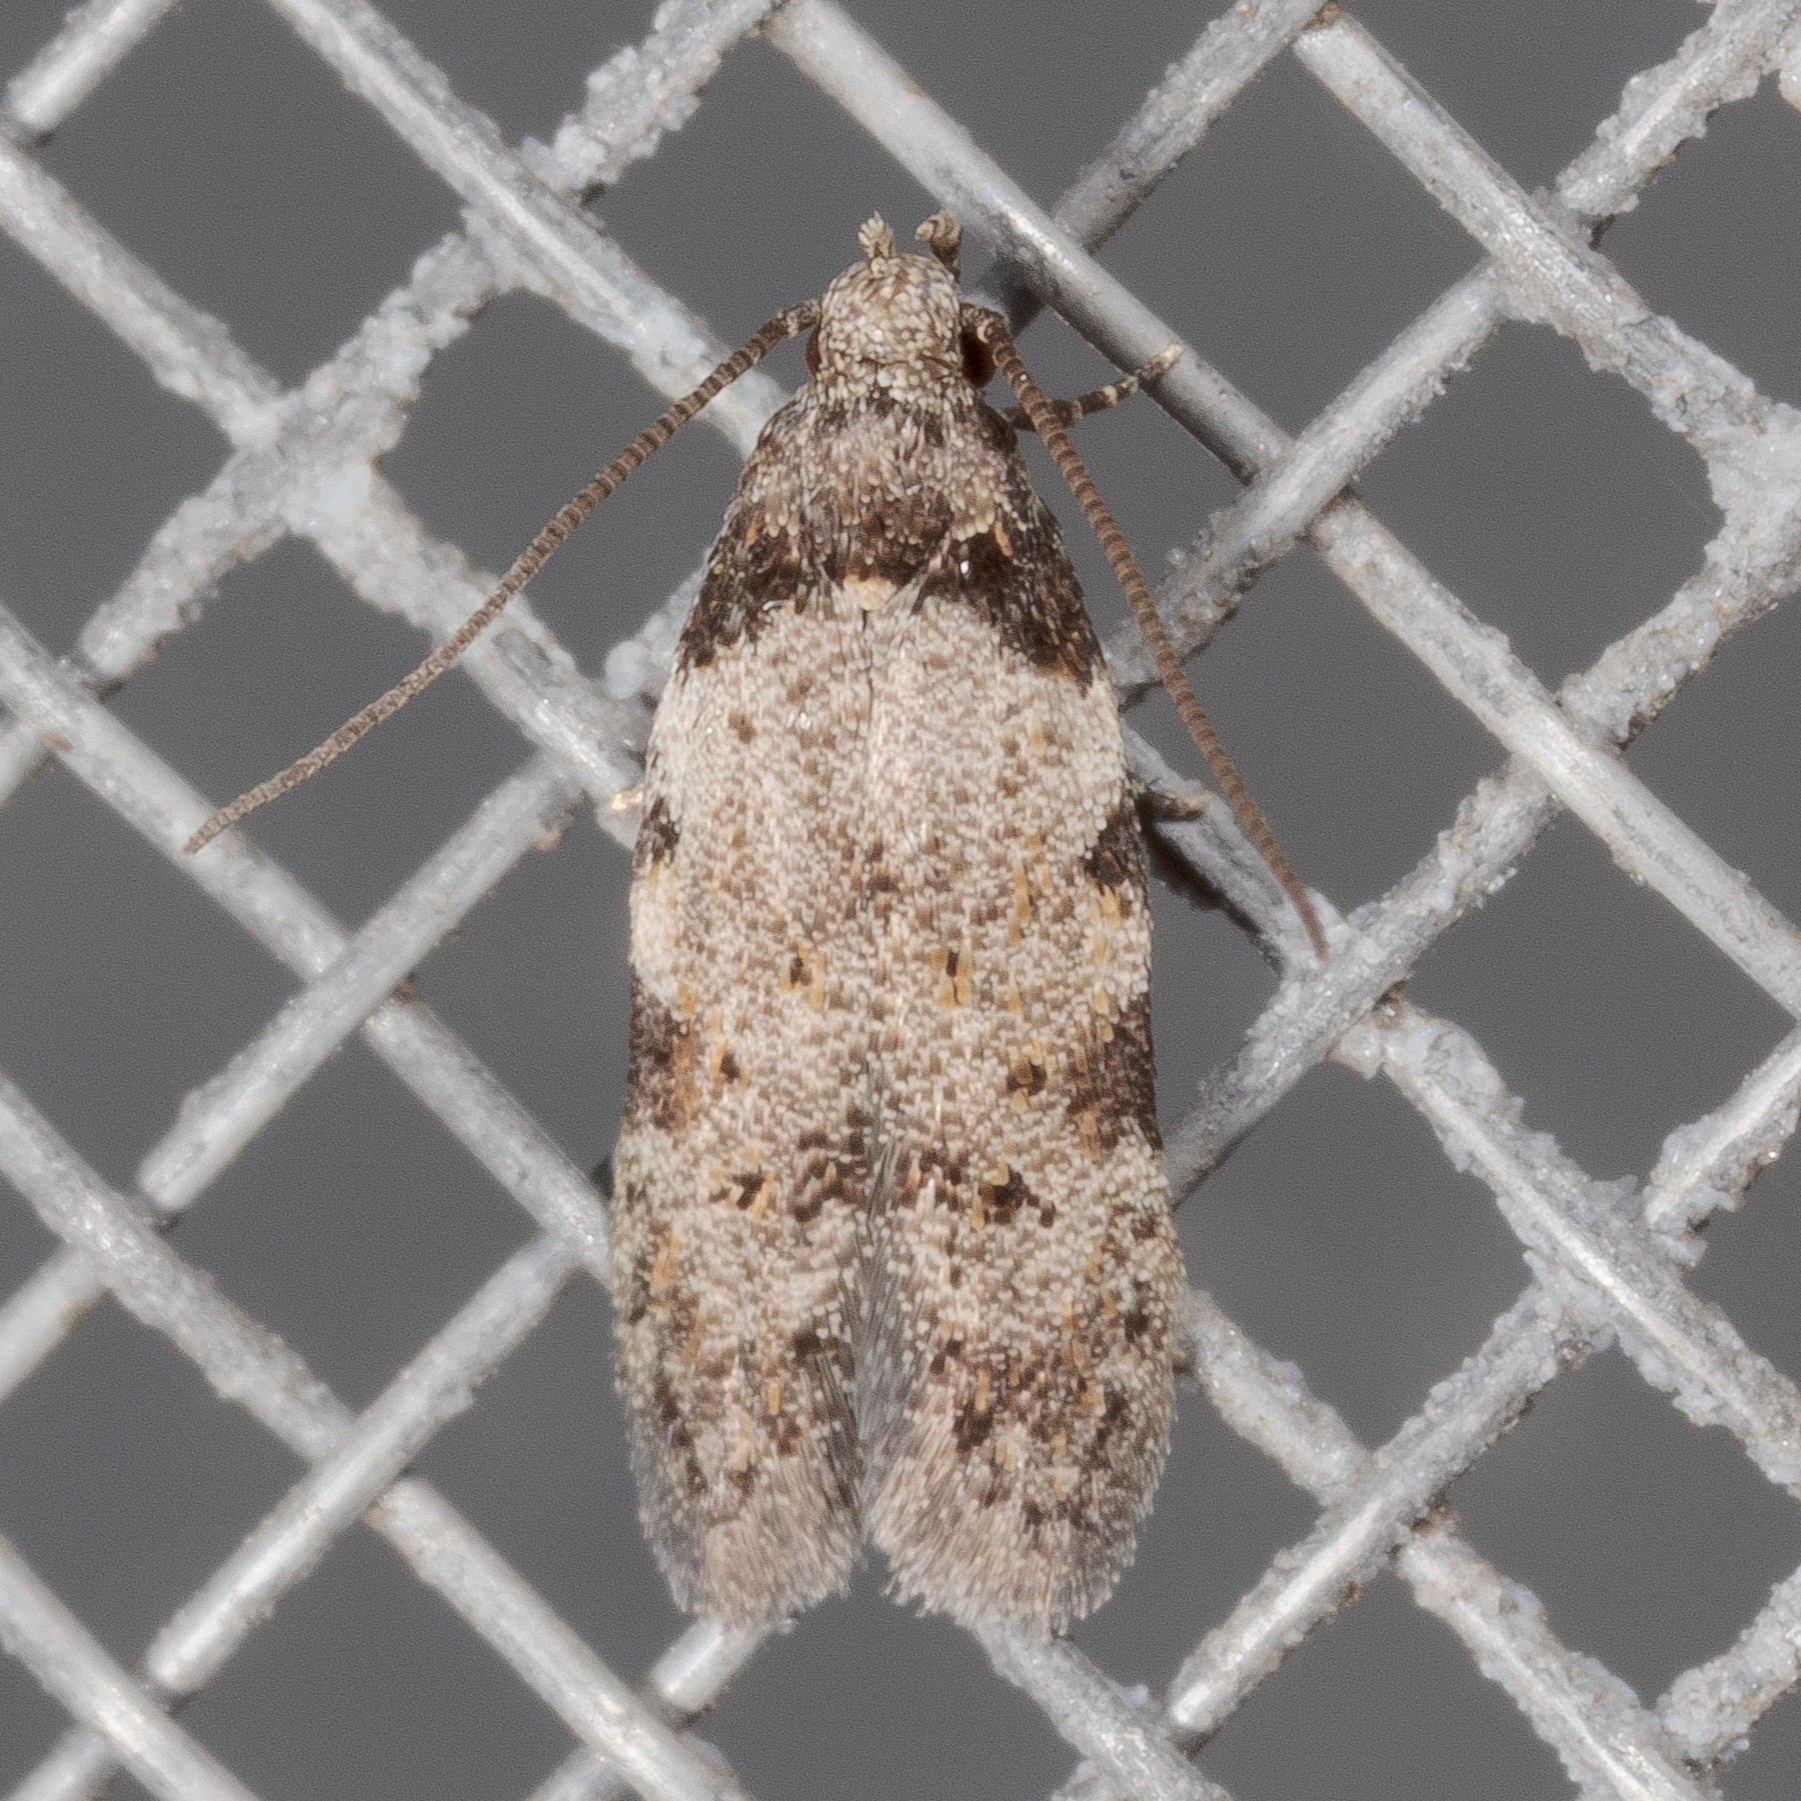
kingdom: Animalia
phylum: Arthropoda
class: Insecta
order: Lepidoptera
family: Autostichidae
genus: Taygete
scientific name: Taygete attributella
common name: Triangle-marked twirler moth
